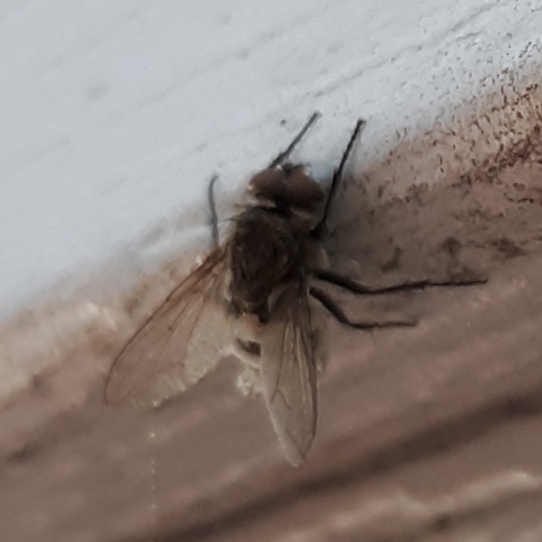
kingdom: Animalia
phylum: Arthropoda
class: Insecta
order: Diptera
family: Polleniidae
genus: Pollenia
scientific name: Pollenia
